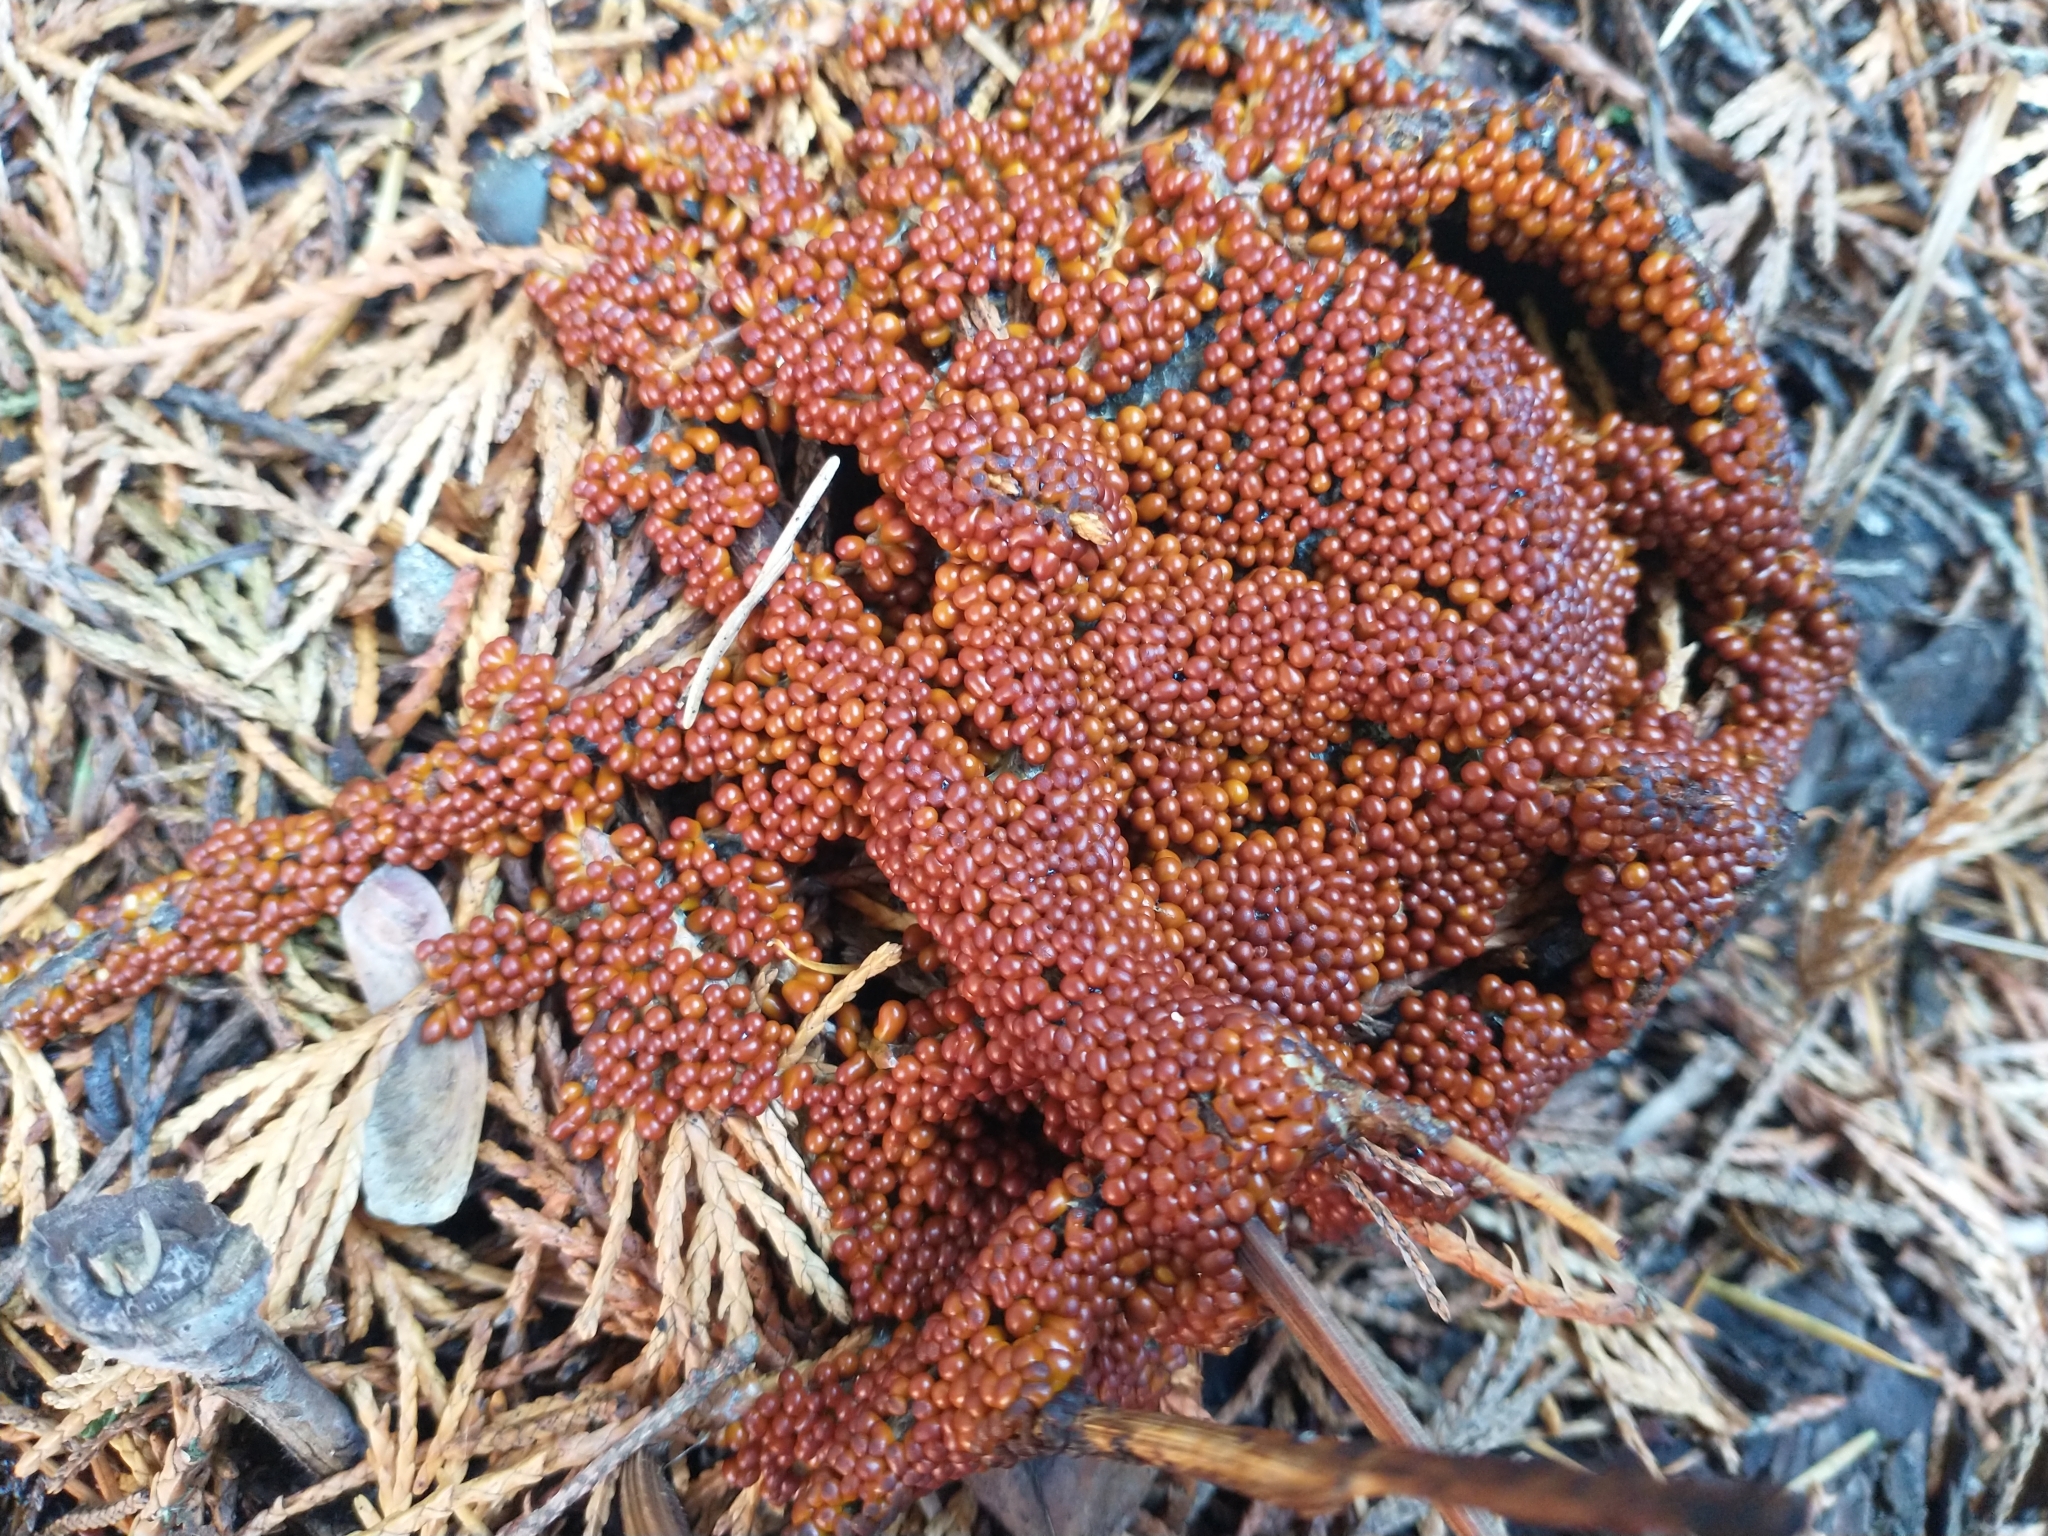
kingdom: Protozoa
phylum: Mycetozoa
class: Myxomycetes
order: Physarales
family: Physaraceae
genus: Leocarpus
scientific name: Leocarpus fragilis
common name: Insect-egg slime
